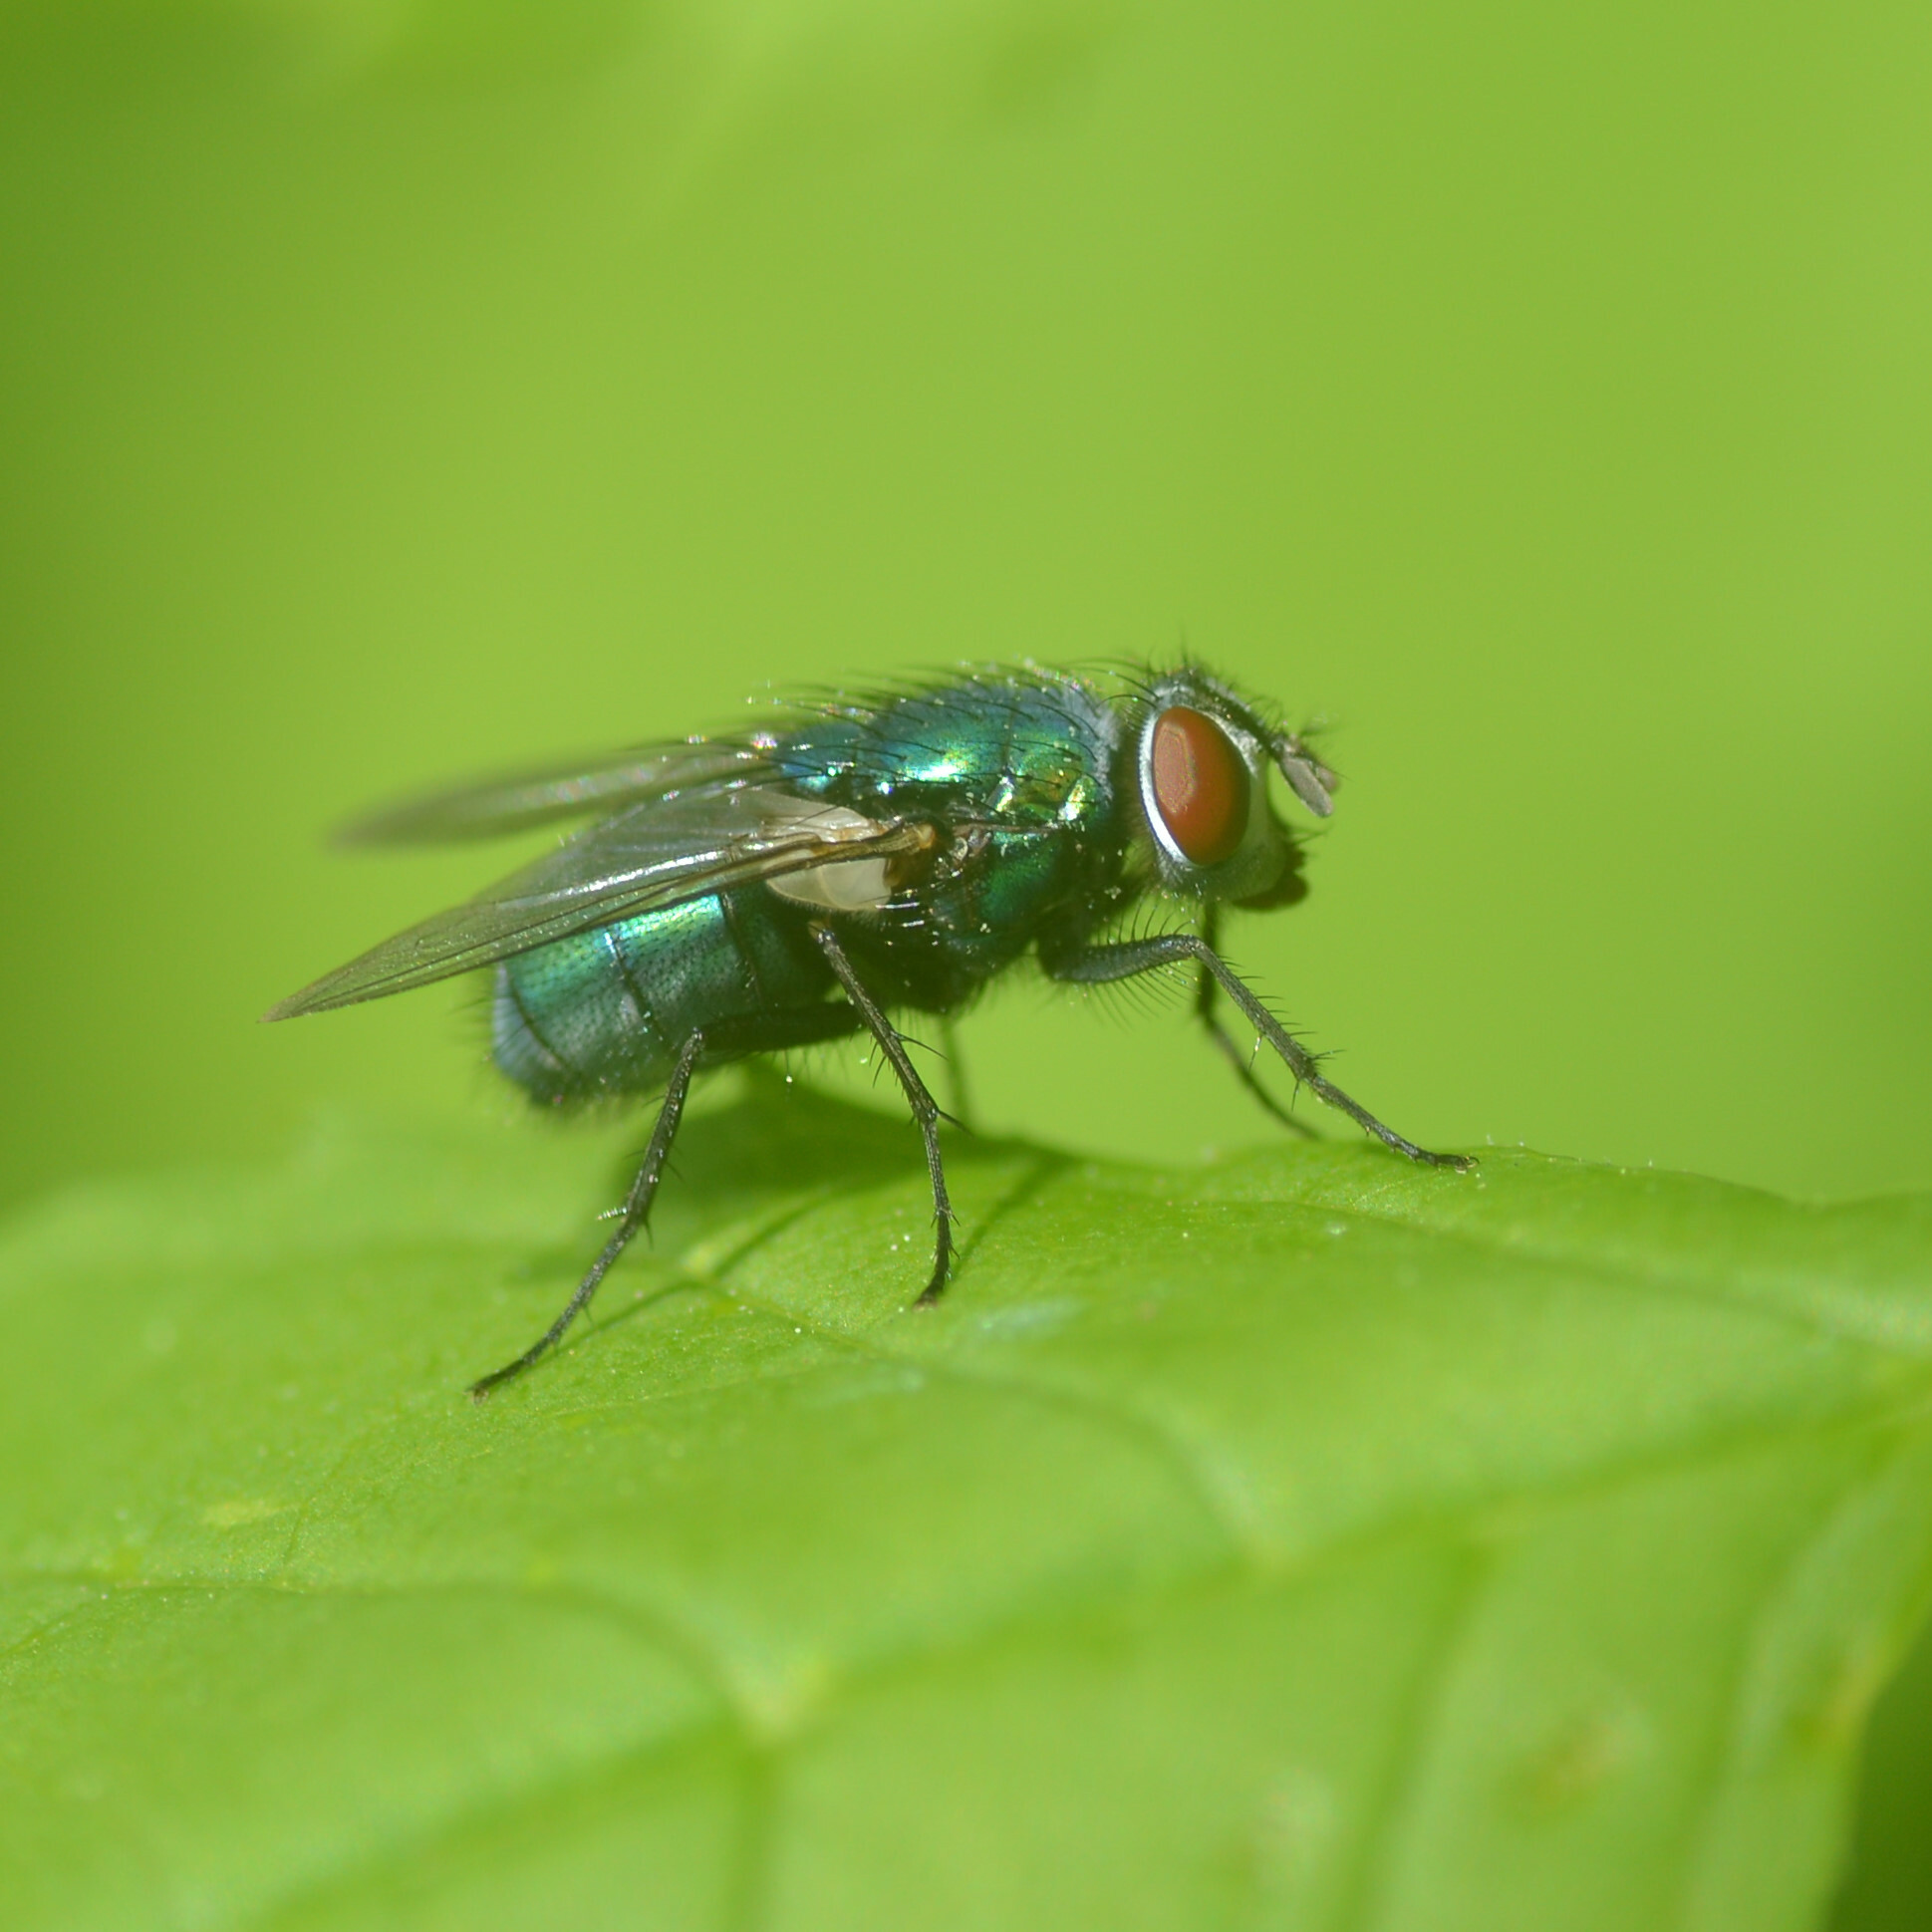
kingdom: Animalia
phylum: Arthropoda
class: Insecta
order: Diptera
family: Calliphoridae
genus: Lucilia
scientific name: Lucilia sericata
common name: Blow fly
